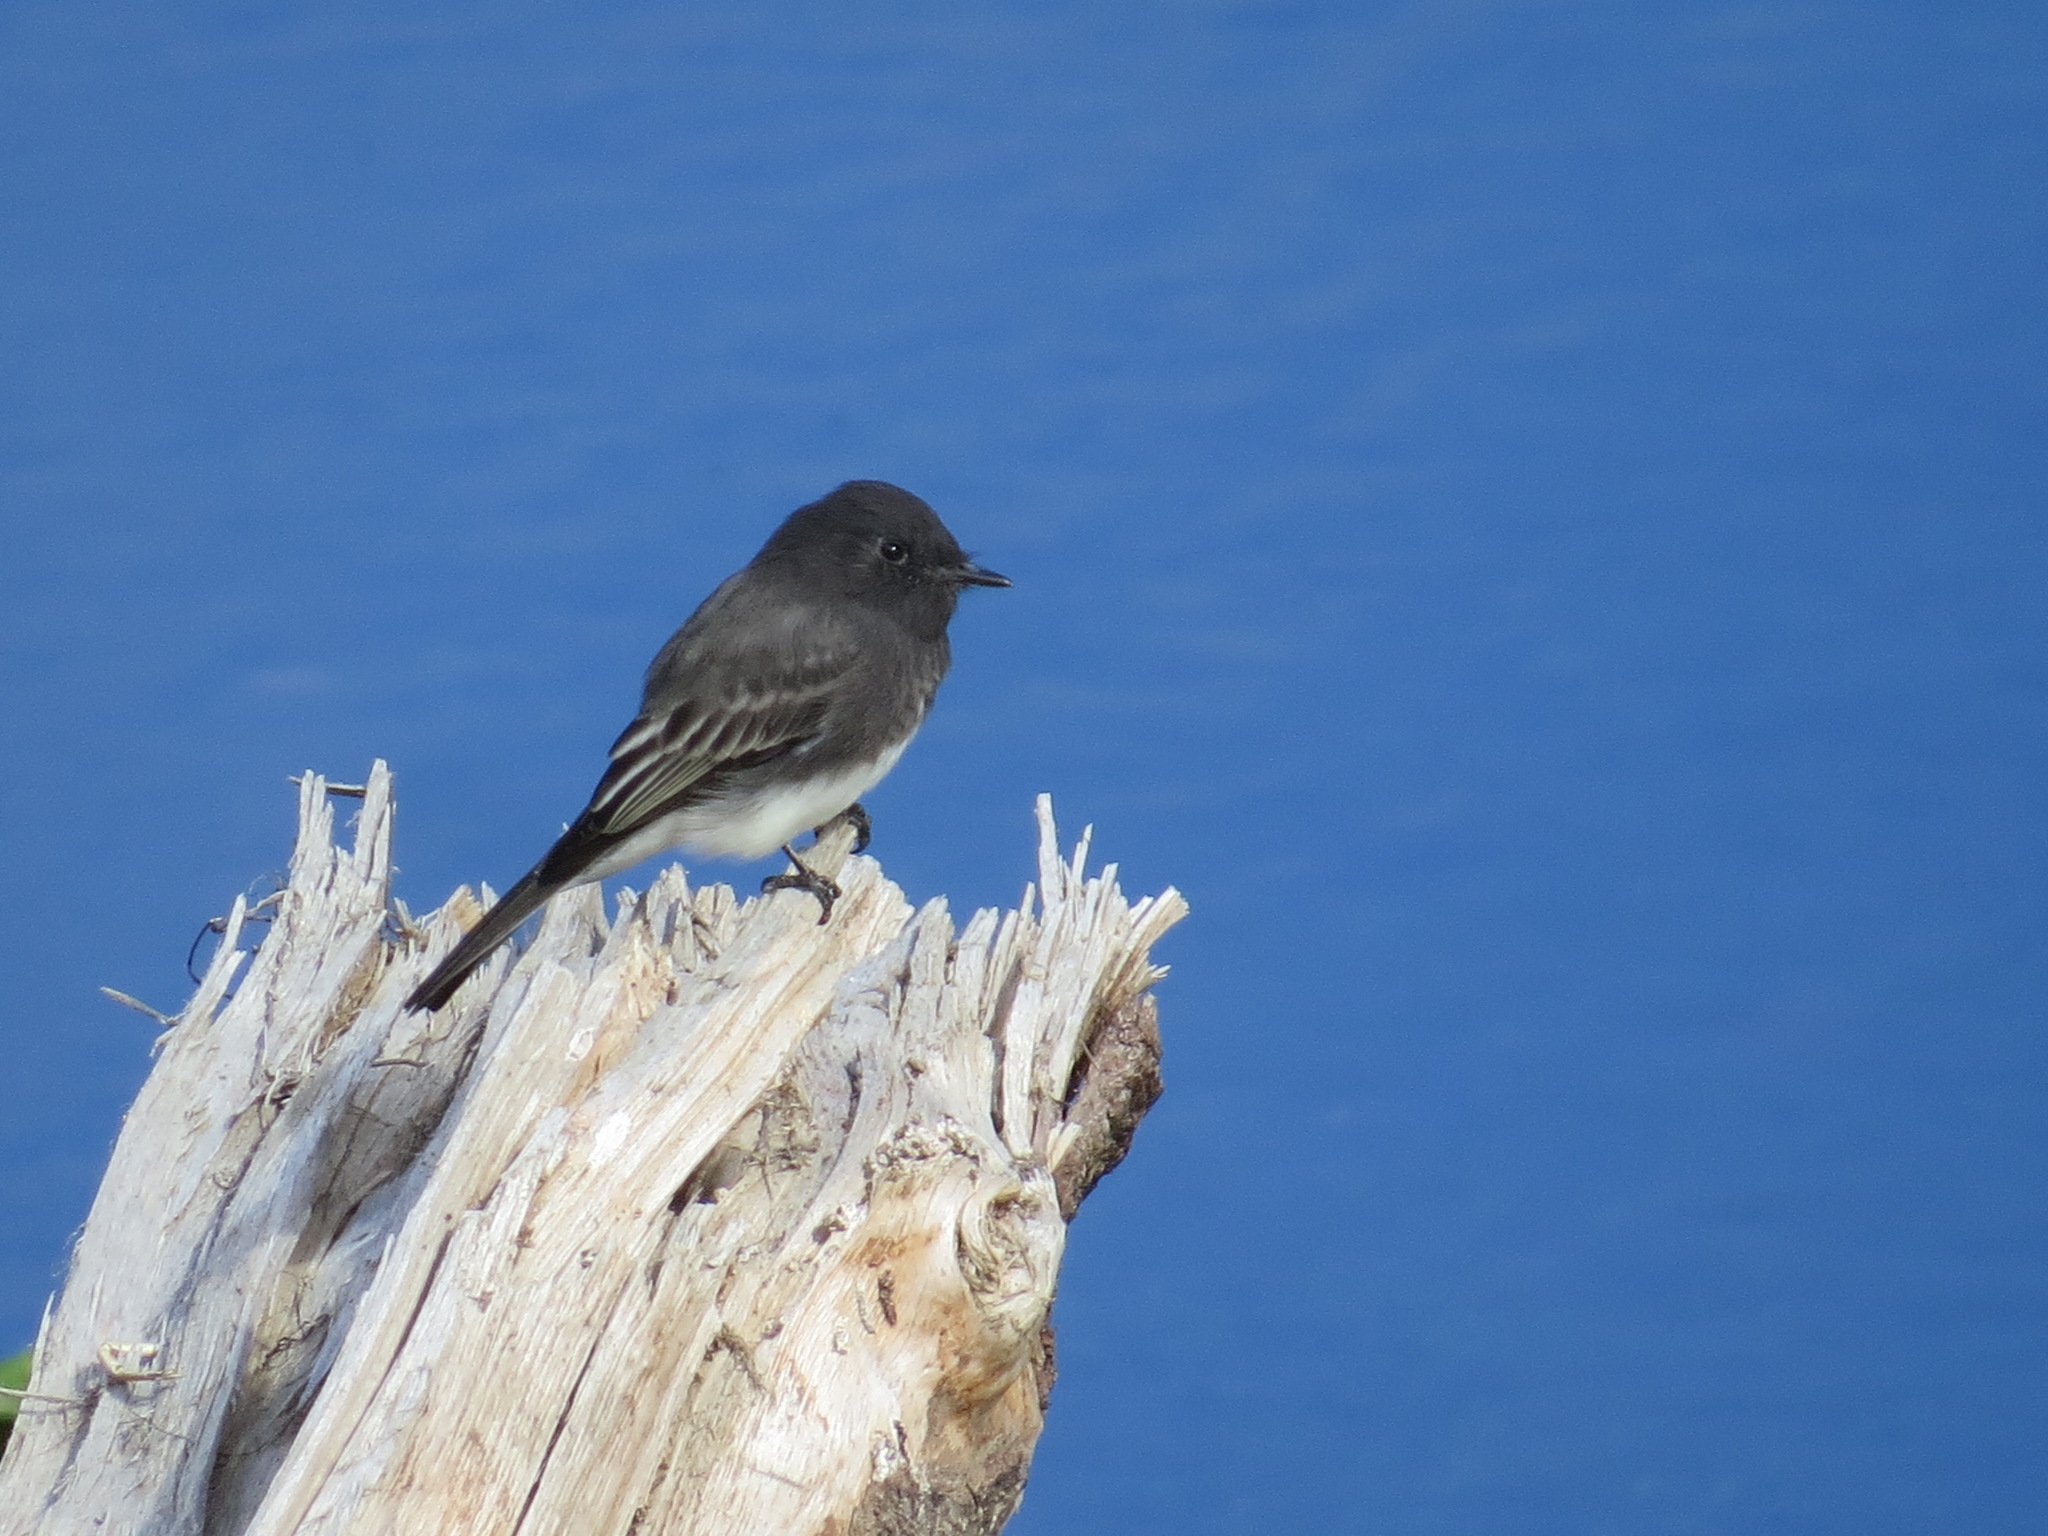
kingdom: Animalia
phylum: Chordata
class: Aves
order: Passeriformes
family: Tyrannidae
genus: Sayornis
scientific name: Sayornis nigricans
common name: Black phoebe
